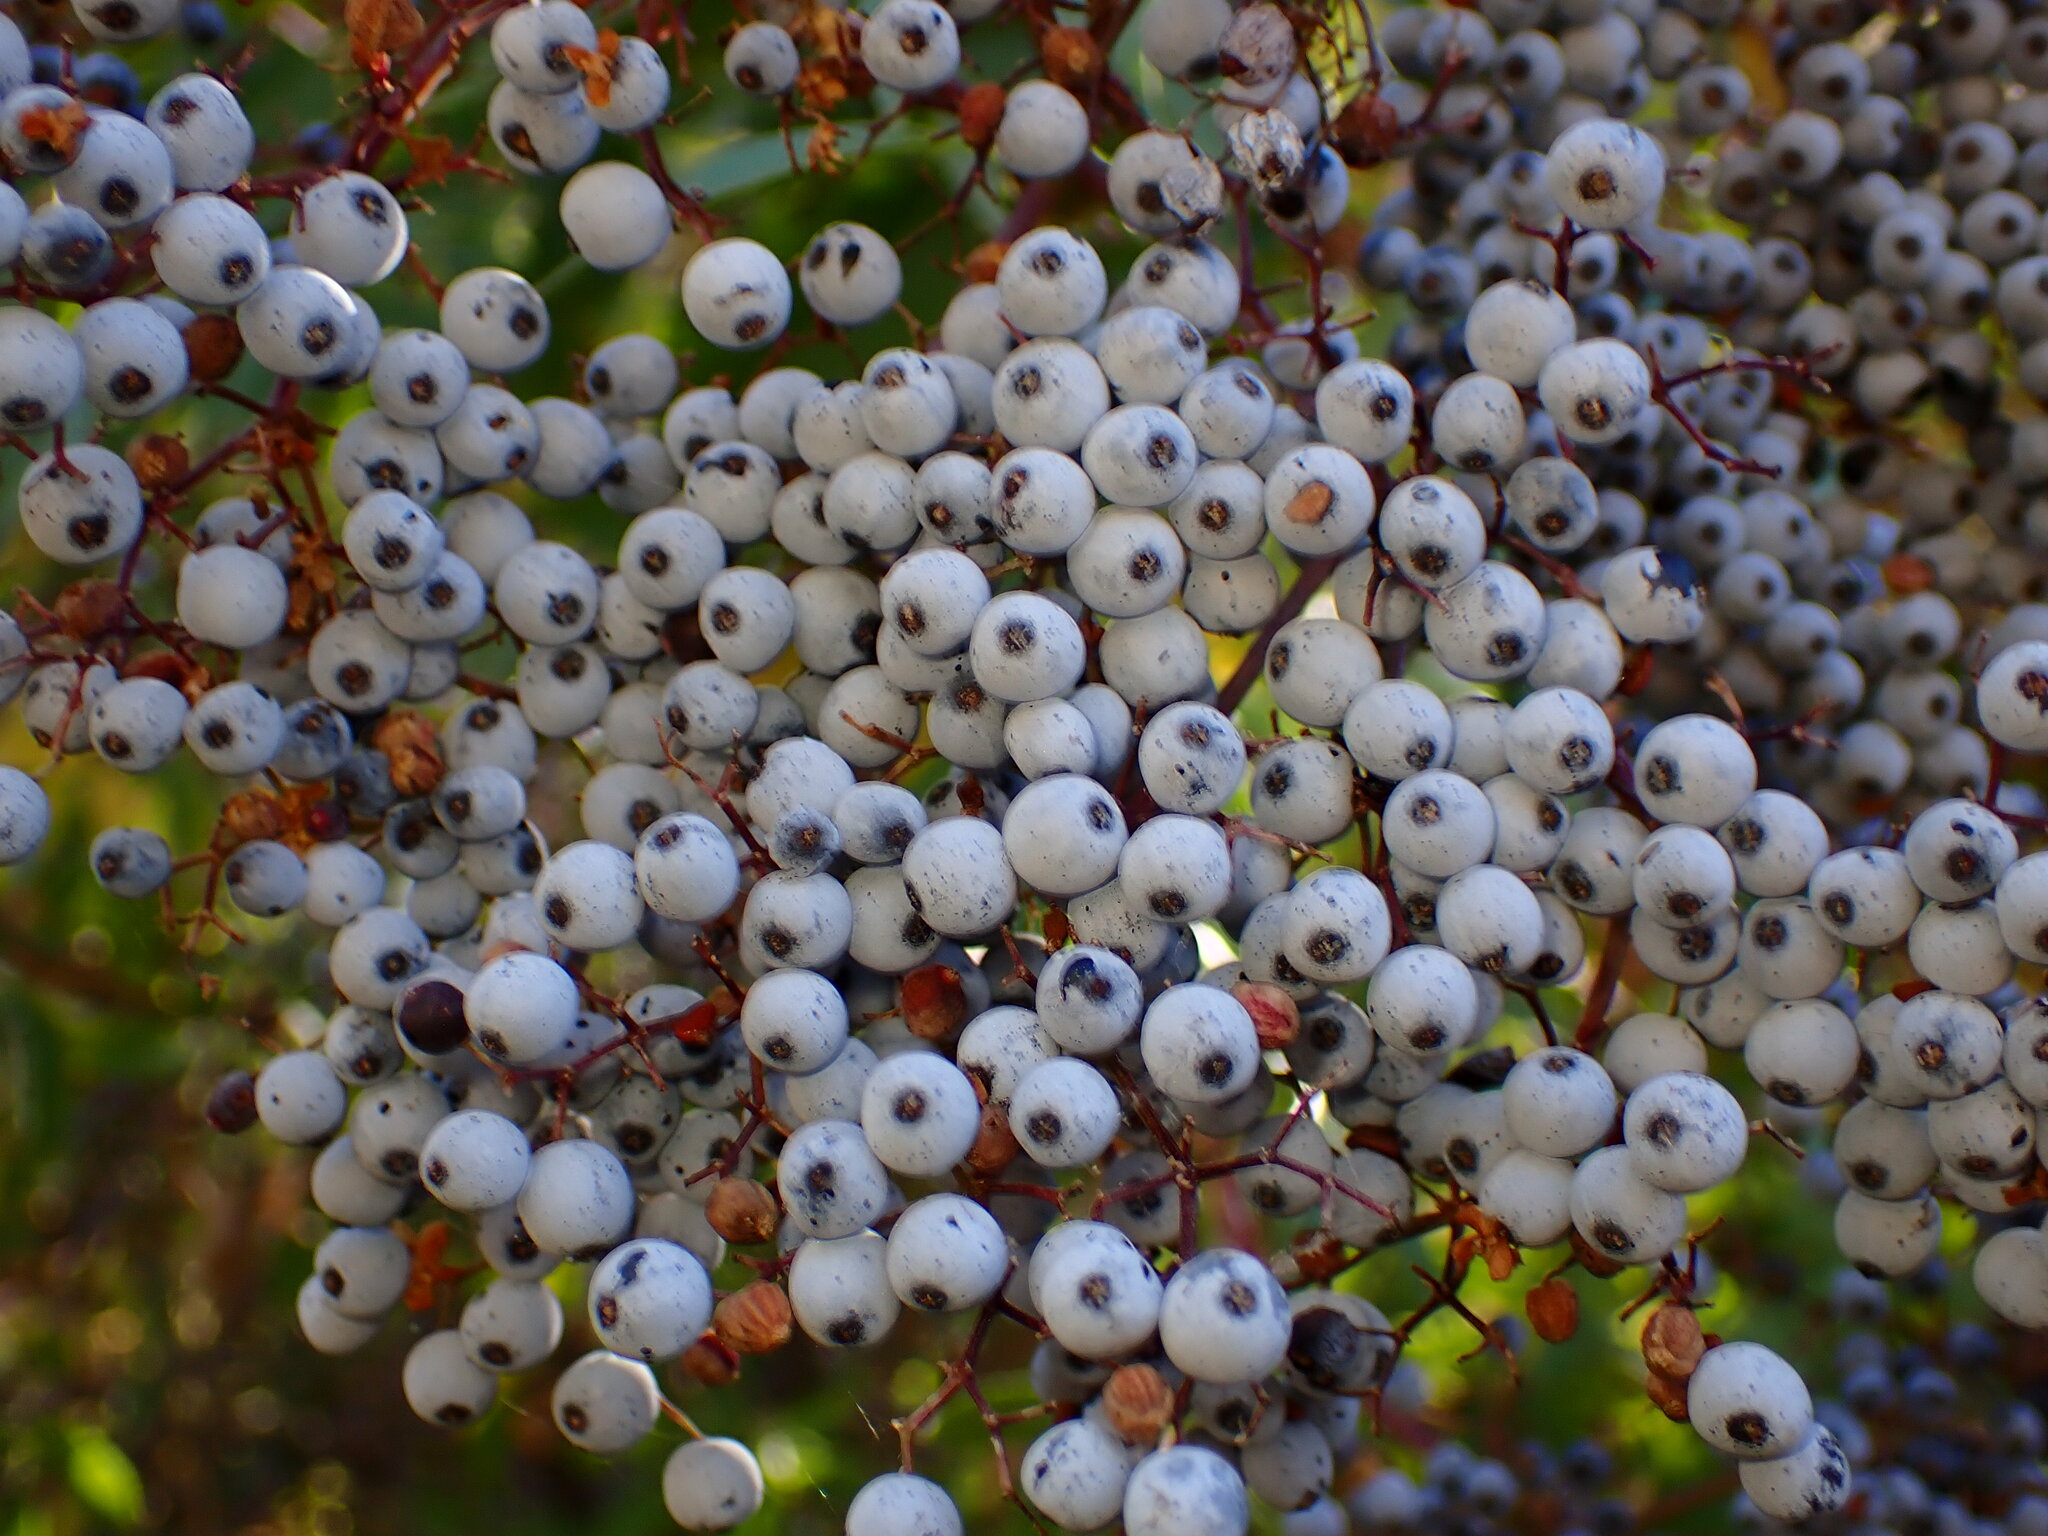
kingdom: Plantae
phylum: Tracheophyta
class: Magnoliopsida
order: Dipsacales
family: Viburnaceae
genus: Sambucus
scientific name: Sambucus cerulea
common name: Blue elder
